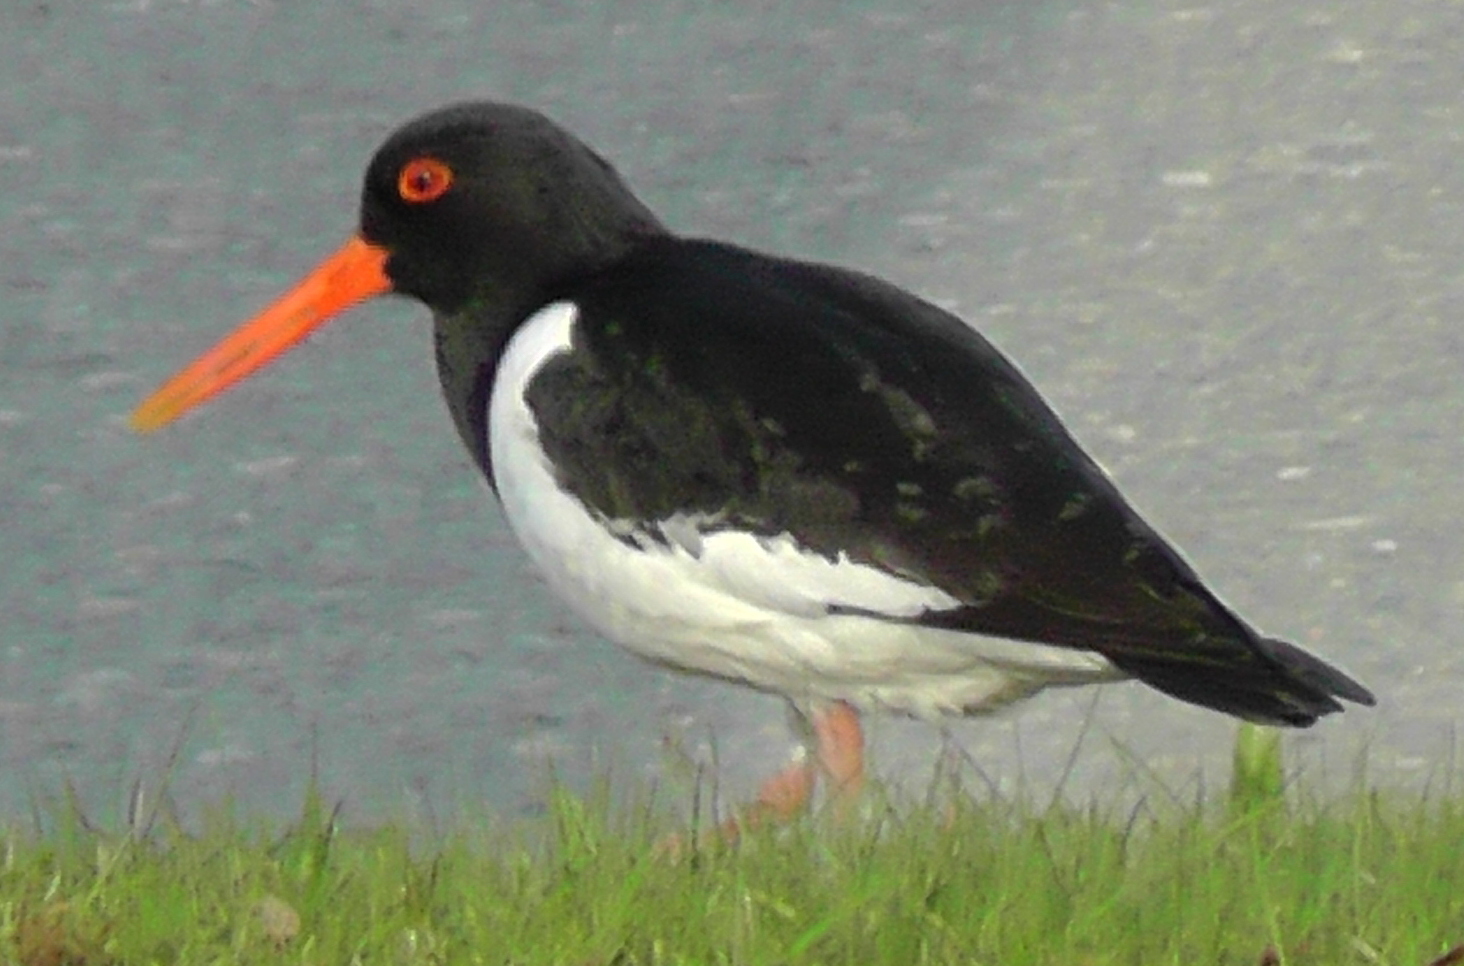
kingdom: Animalia
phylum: Chordata
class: Aves
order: Charadriiformes
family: Haematopodidae
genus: Haematopus
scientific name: Haematopus ostralegus
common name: Eurasian oystercatcher
